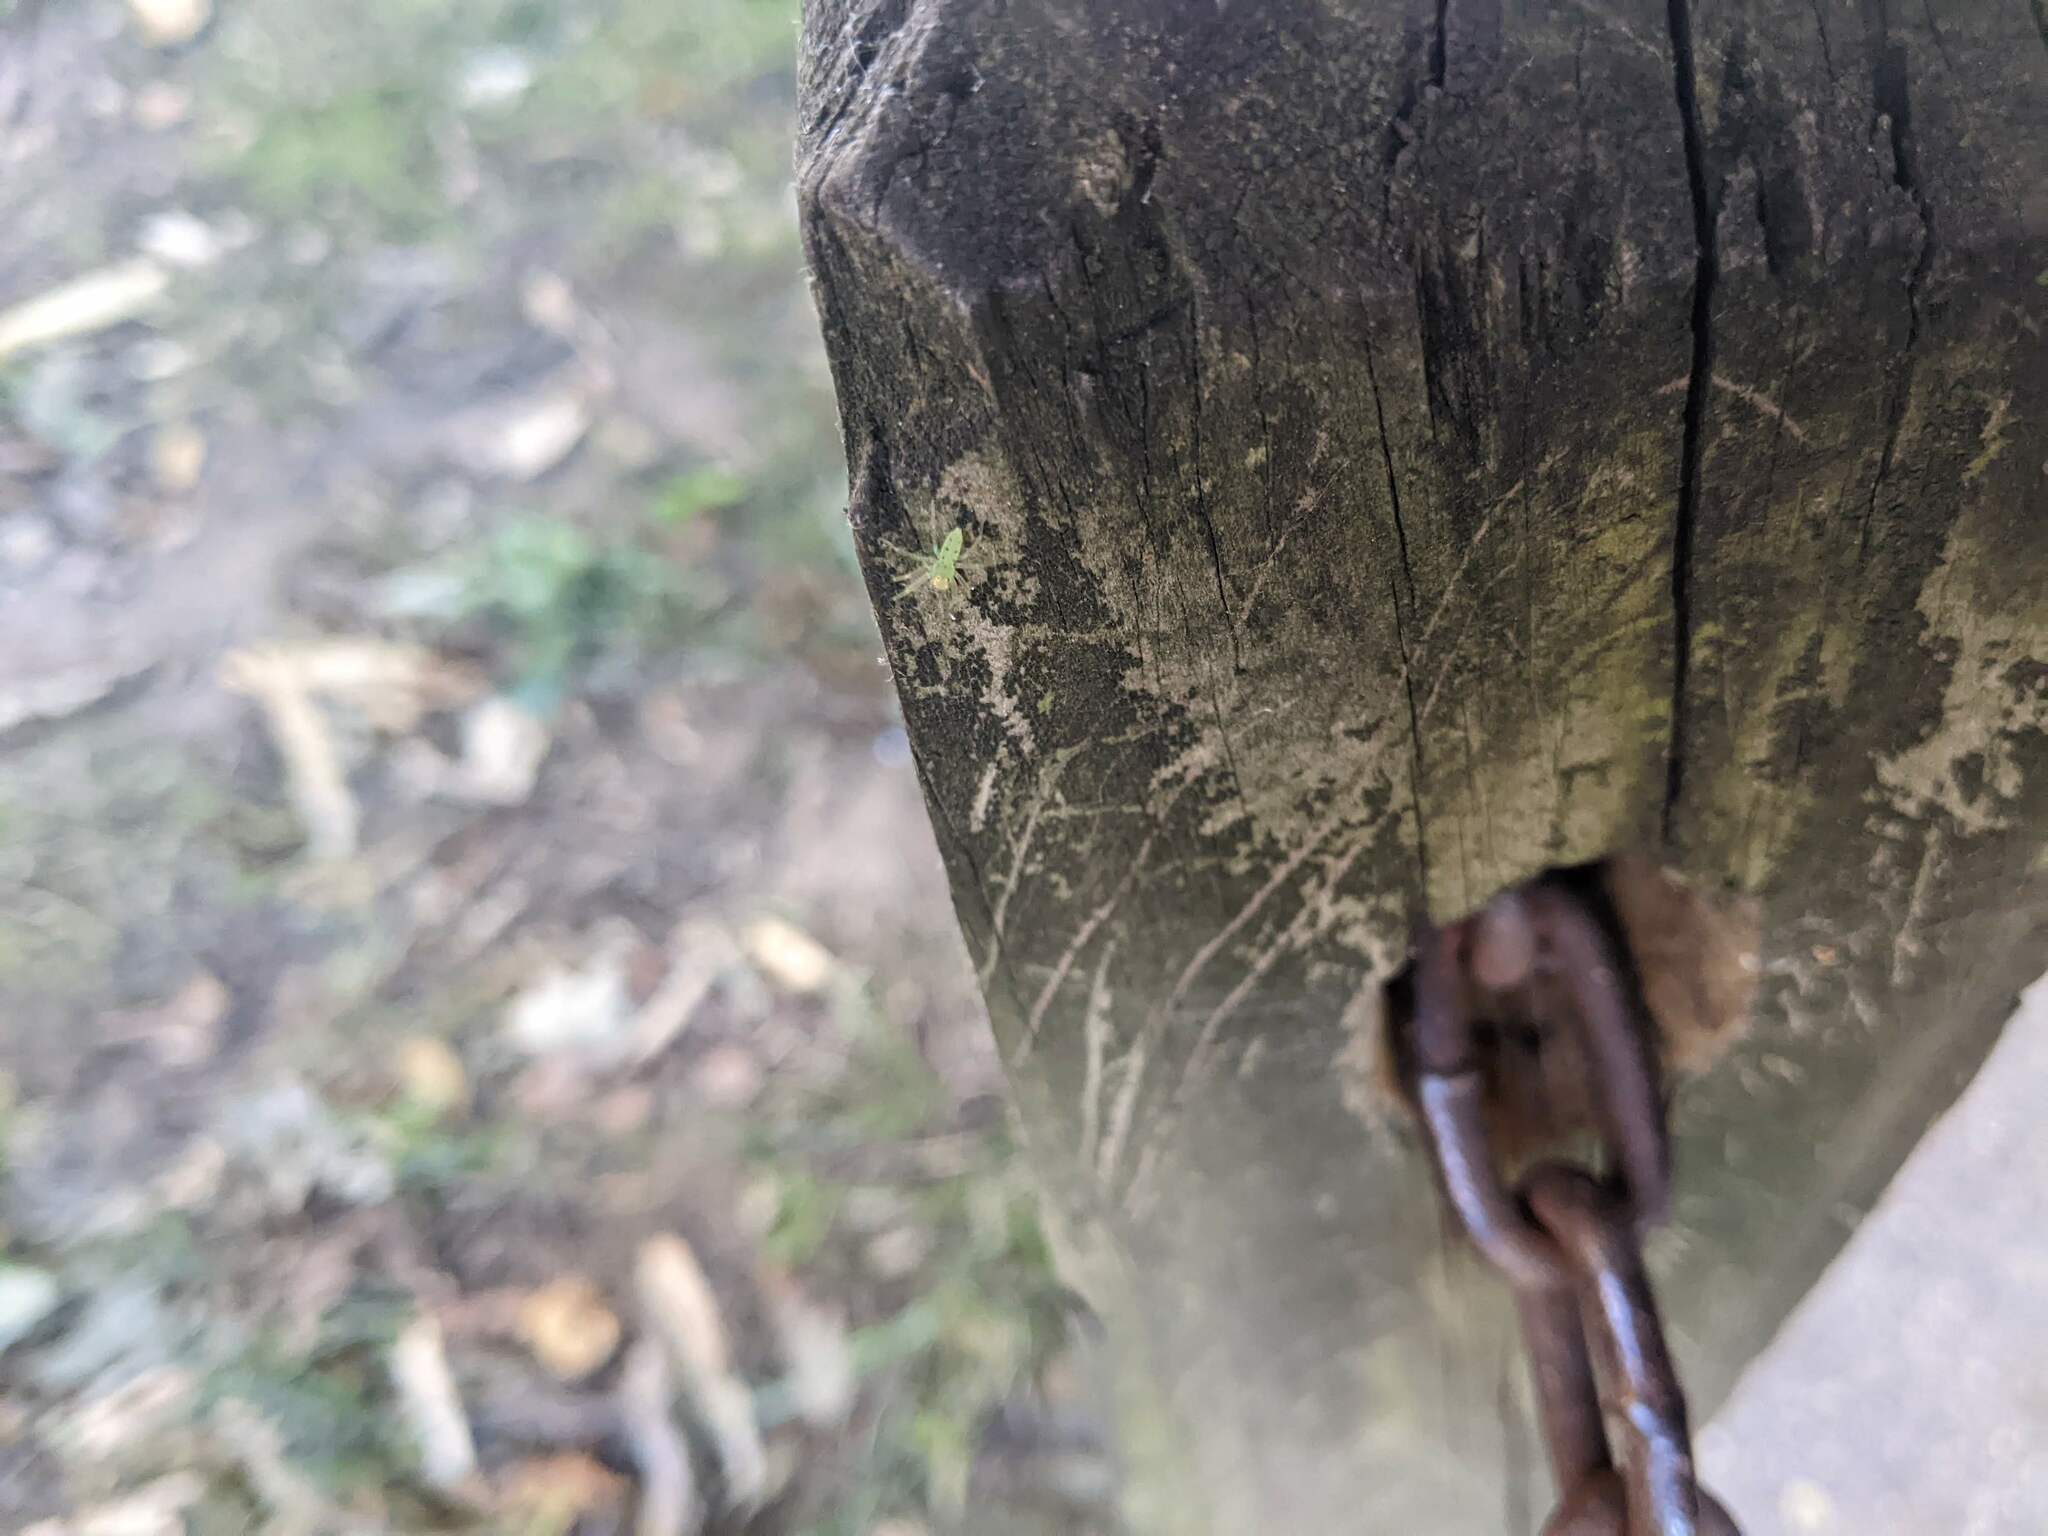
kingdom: Animalia
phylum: Arthropoda
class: Arachnida
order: Araneae
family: Salticidae
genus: Lyssomanes
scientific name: Lyssomanes viridis
